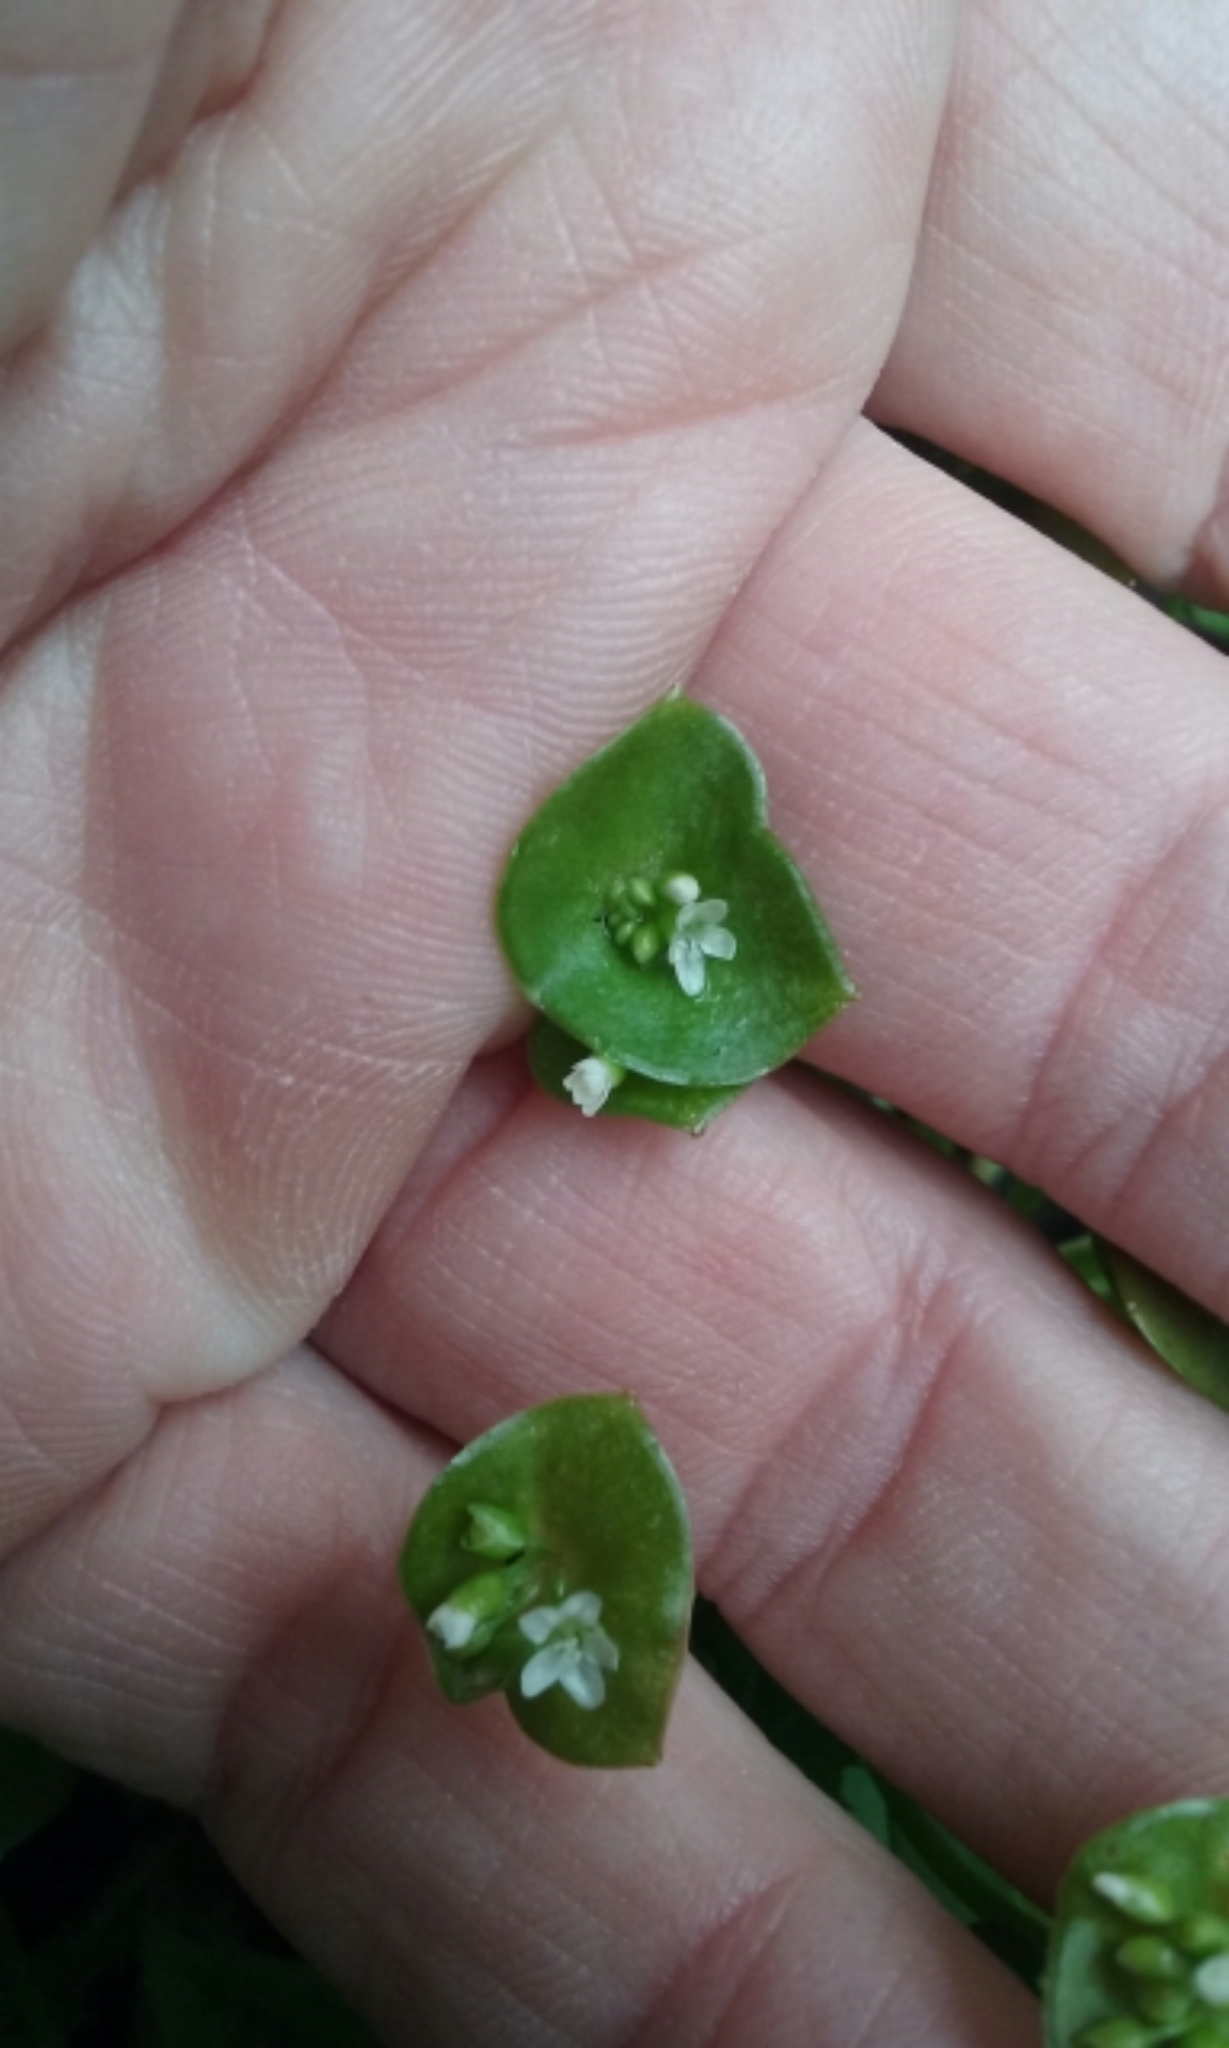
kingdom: Plantae
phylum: Tracheophyta
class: Magnoliopsida
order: Caryophyllales
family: Montiaceae
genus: Claytonia
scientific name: Claytonia parviflora
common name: Indian-lettuce
